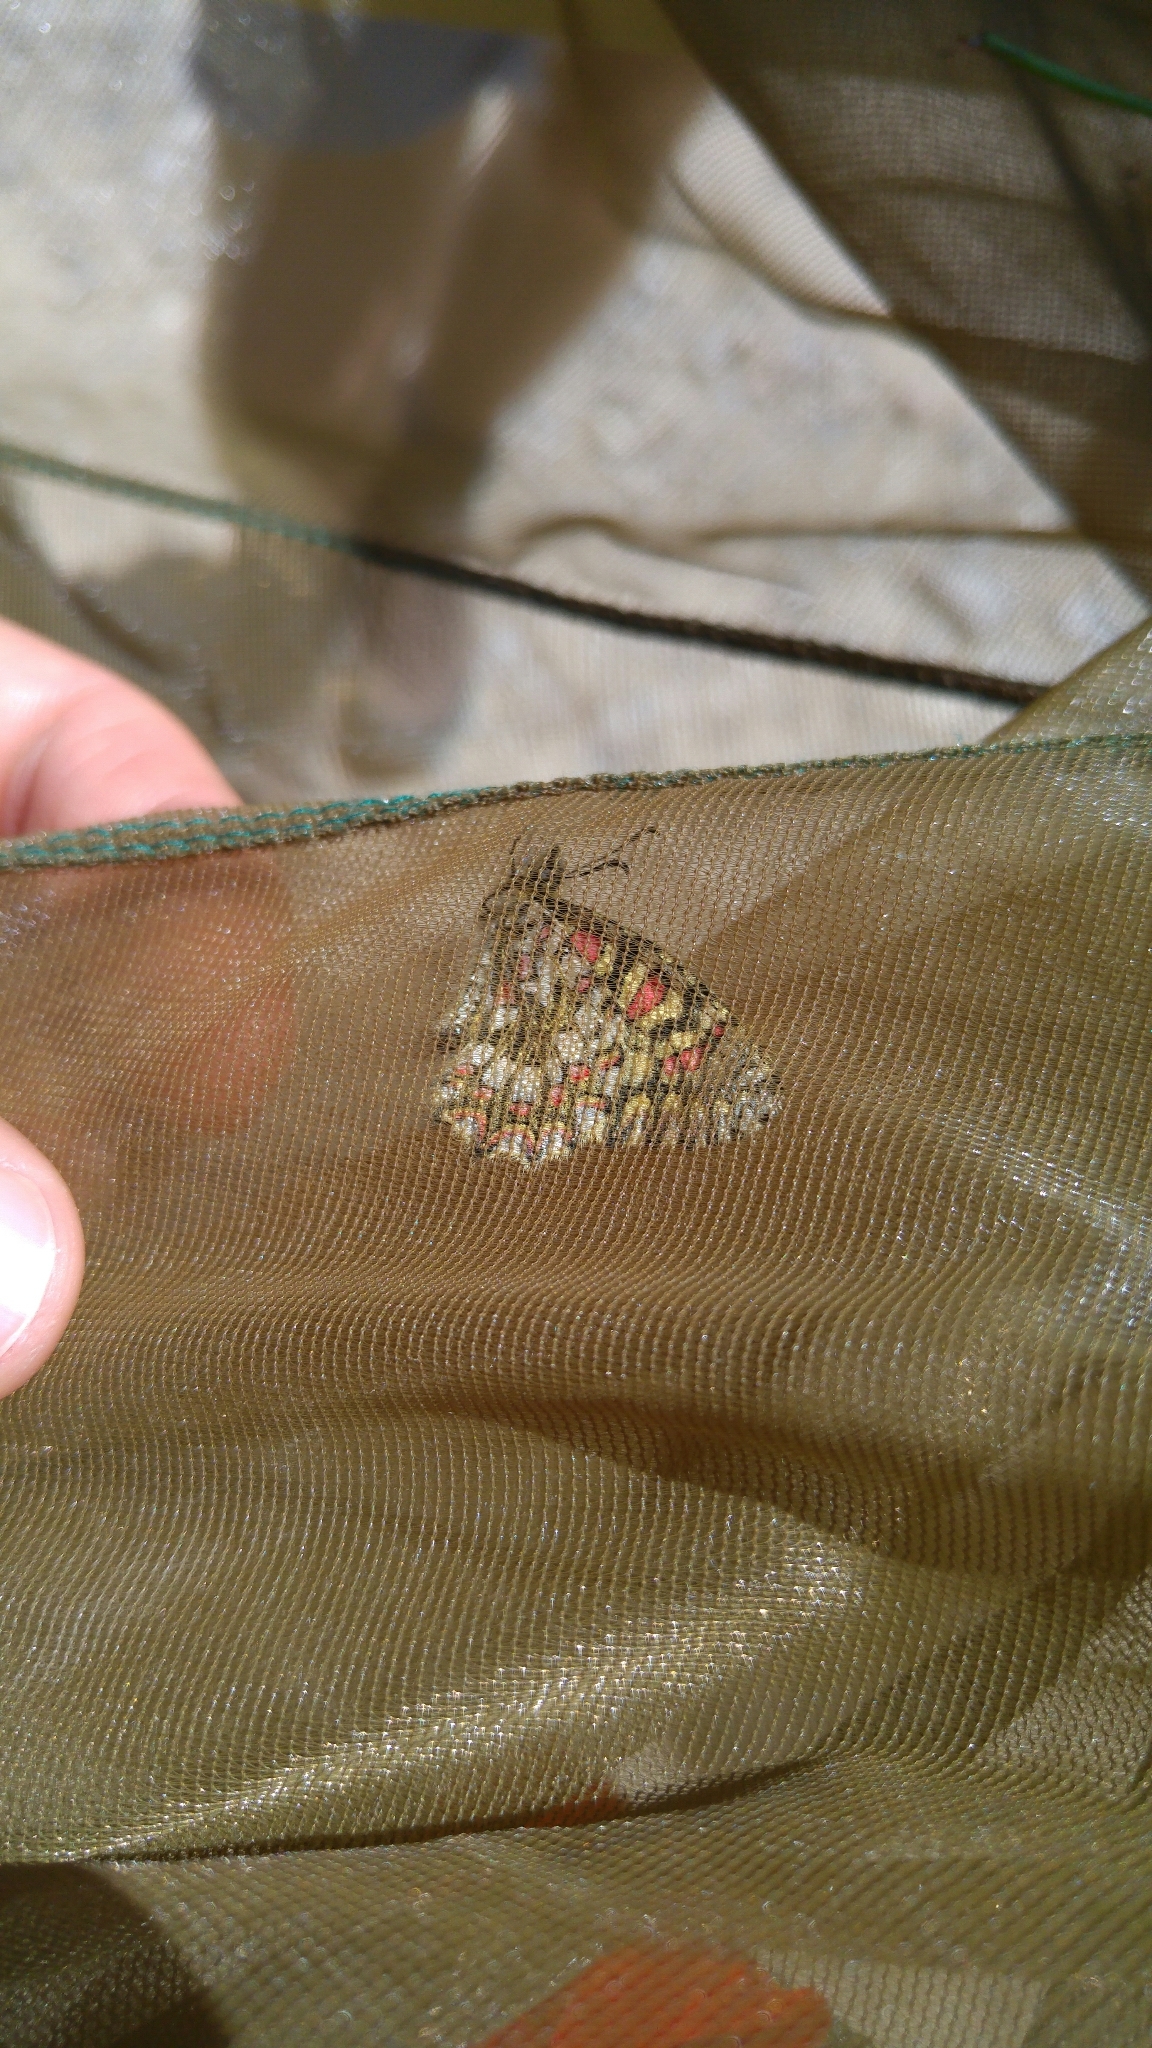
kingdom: Animalia
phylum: Arthropoda
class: Insecta
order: Lepidoptera
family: Papilionidae
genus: Zerynthia
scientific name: Zerynthia rumina
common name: Spanish festoon
